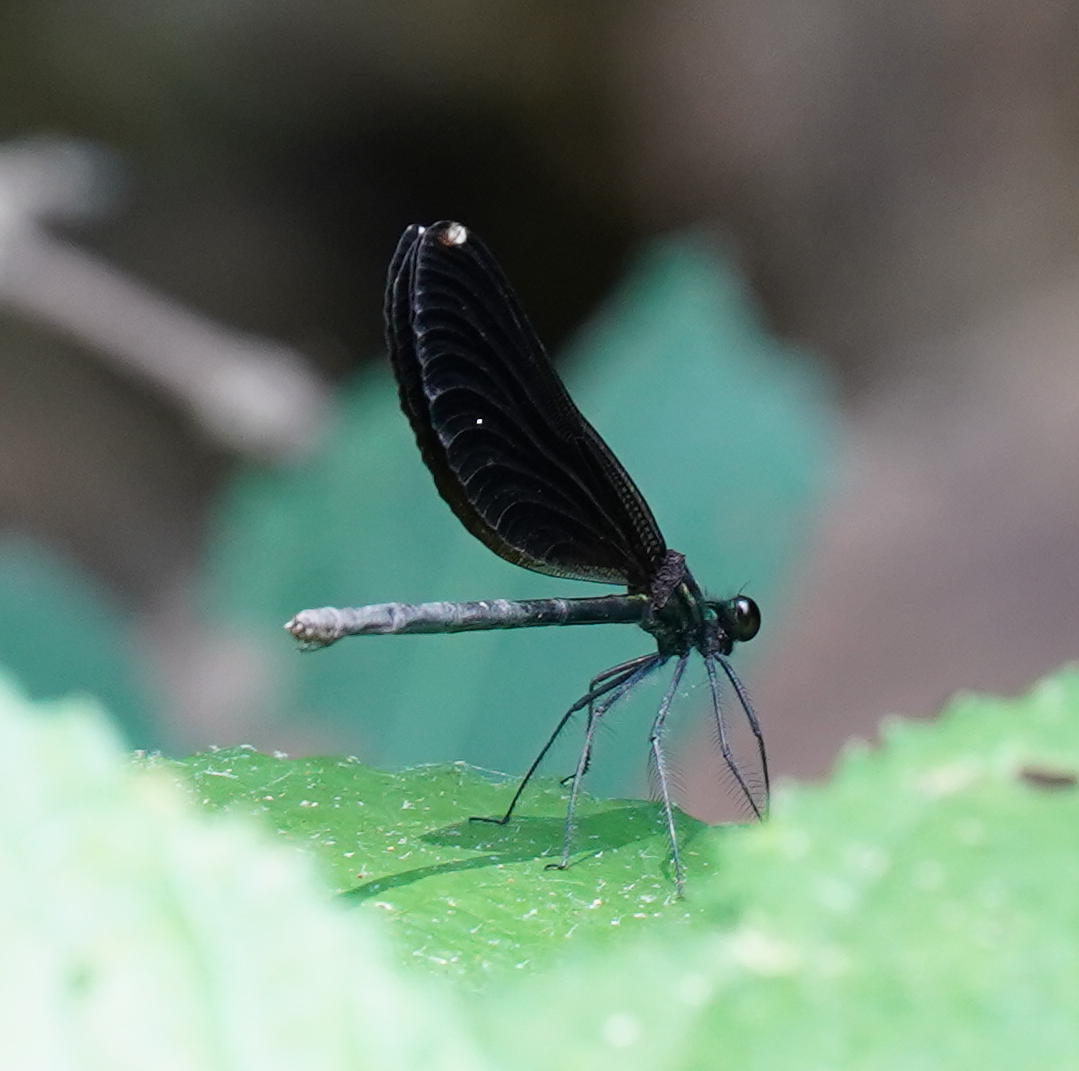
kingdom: Animalia
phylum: Arthropoda
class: Insecta
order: Odonata
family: Calopterygidae
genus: Calopteryx
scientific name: Calopteryx maculata
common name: Ebony jewelwing
